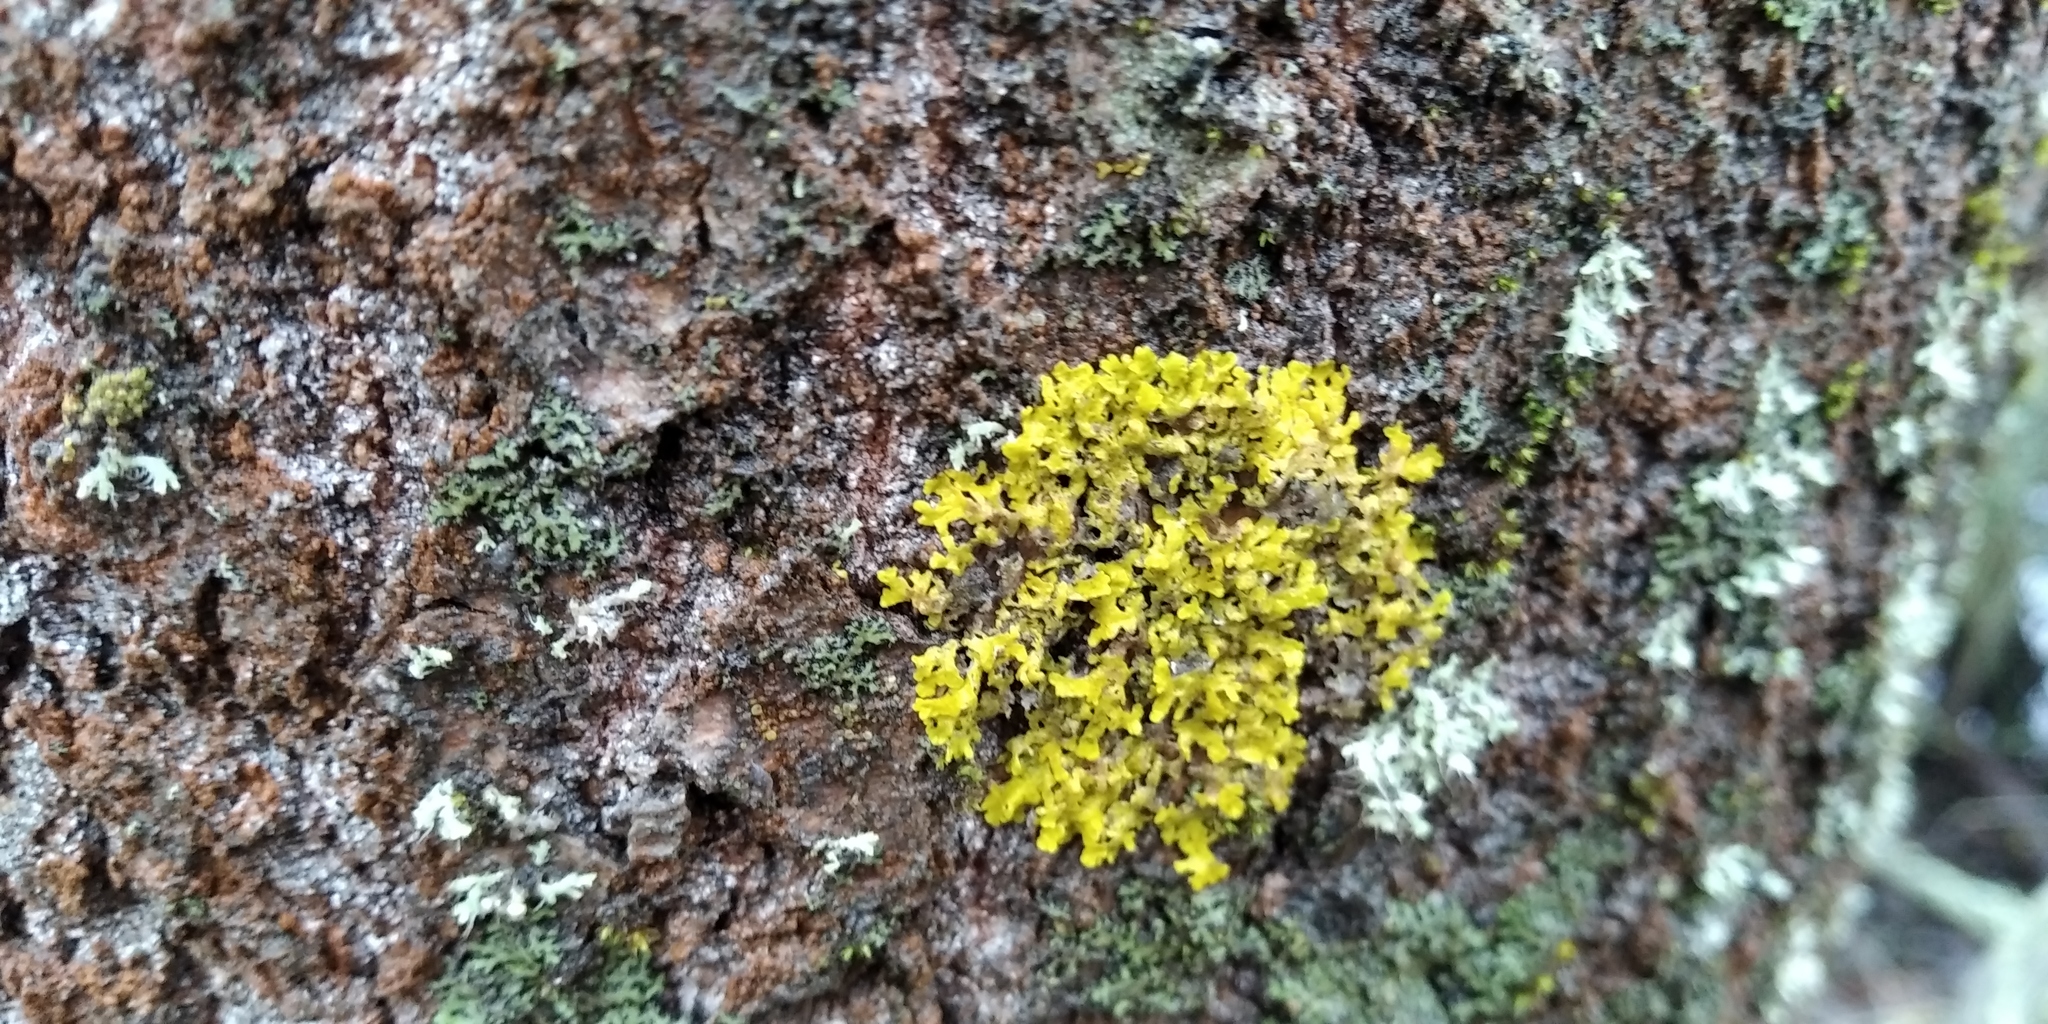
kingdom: Fungi
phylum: Ascomycota
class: Lecanoromycetes
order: Teloschistales
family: Teloschistaceae
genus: Xanthoria
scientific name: Xanthoria parietina
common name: Common orange lichen
